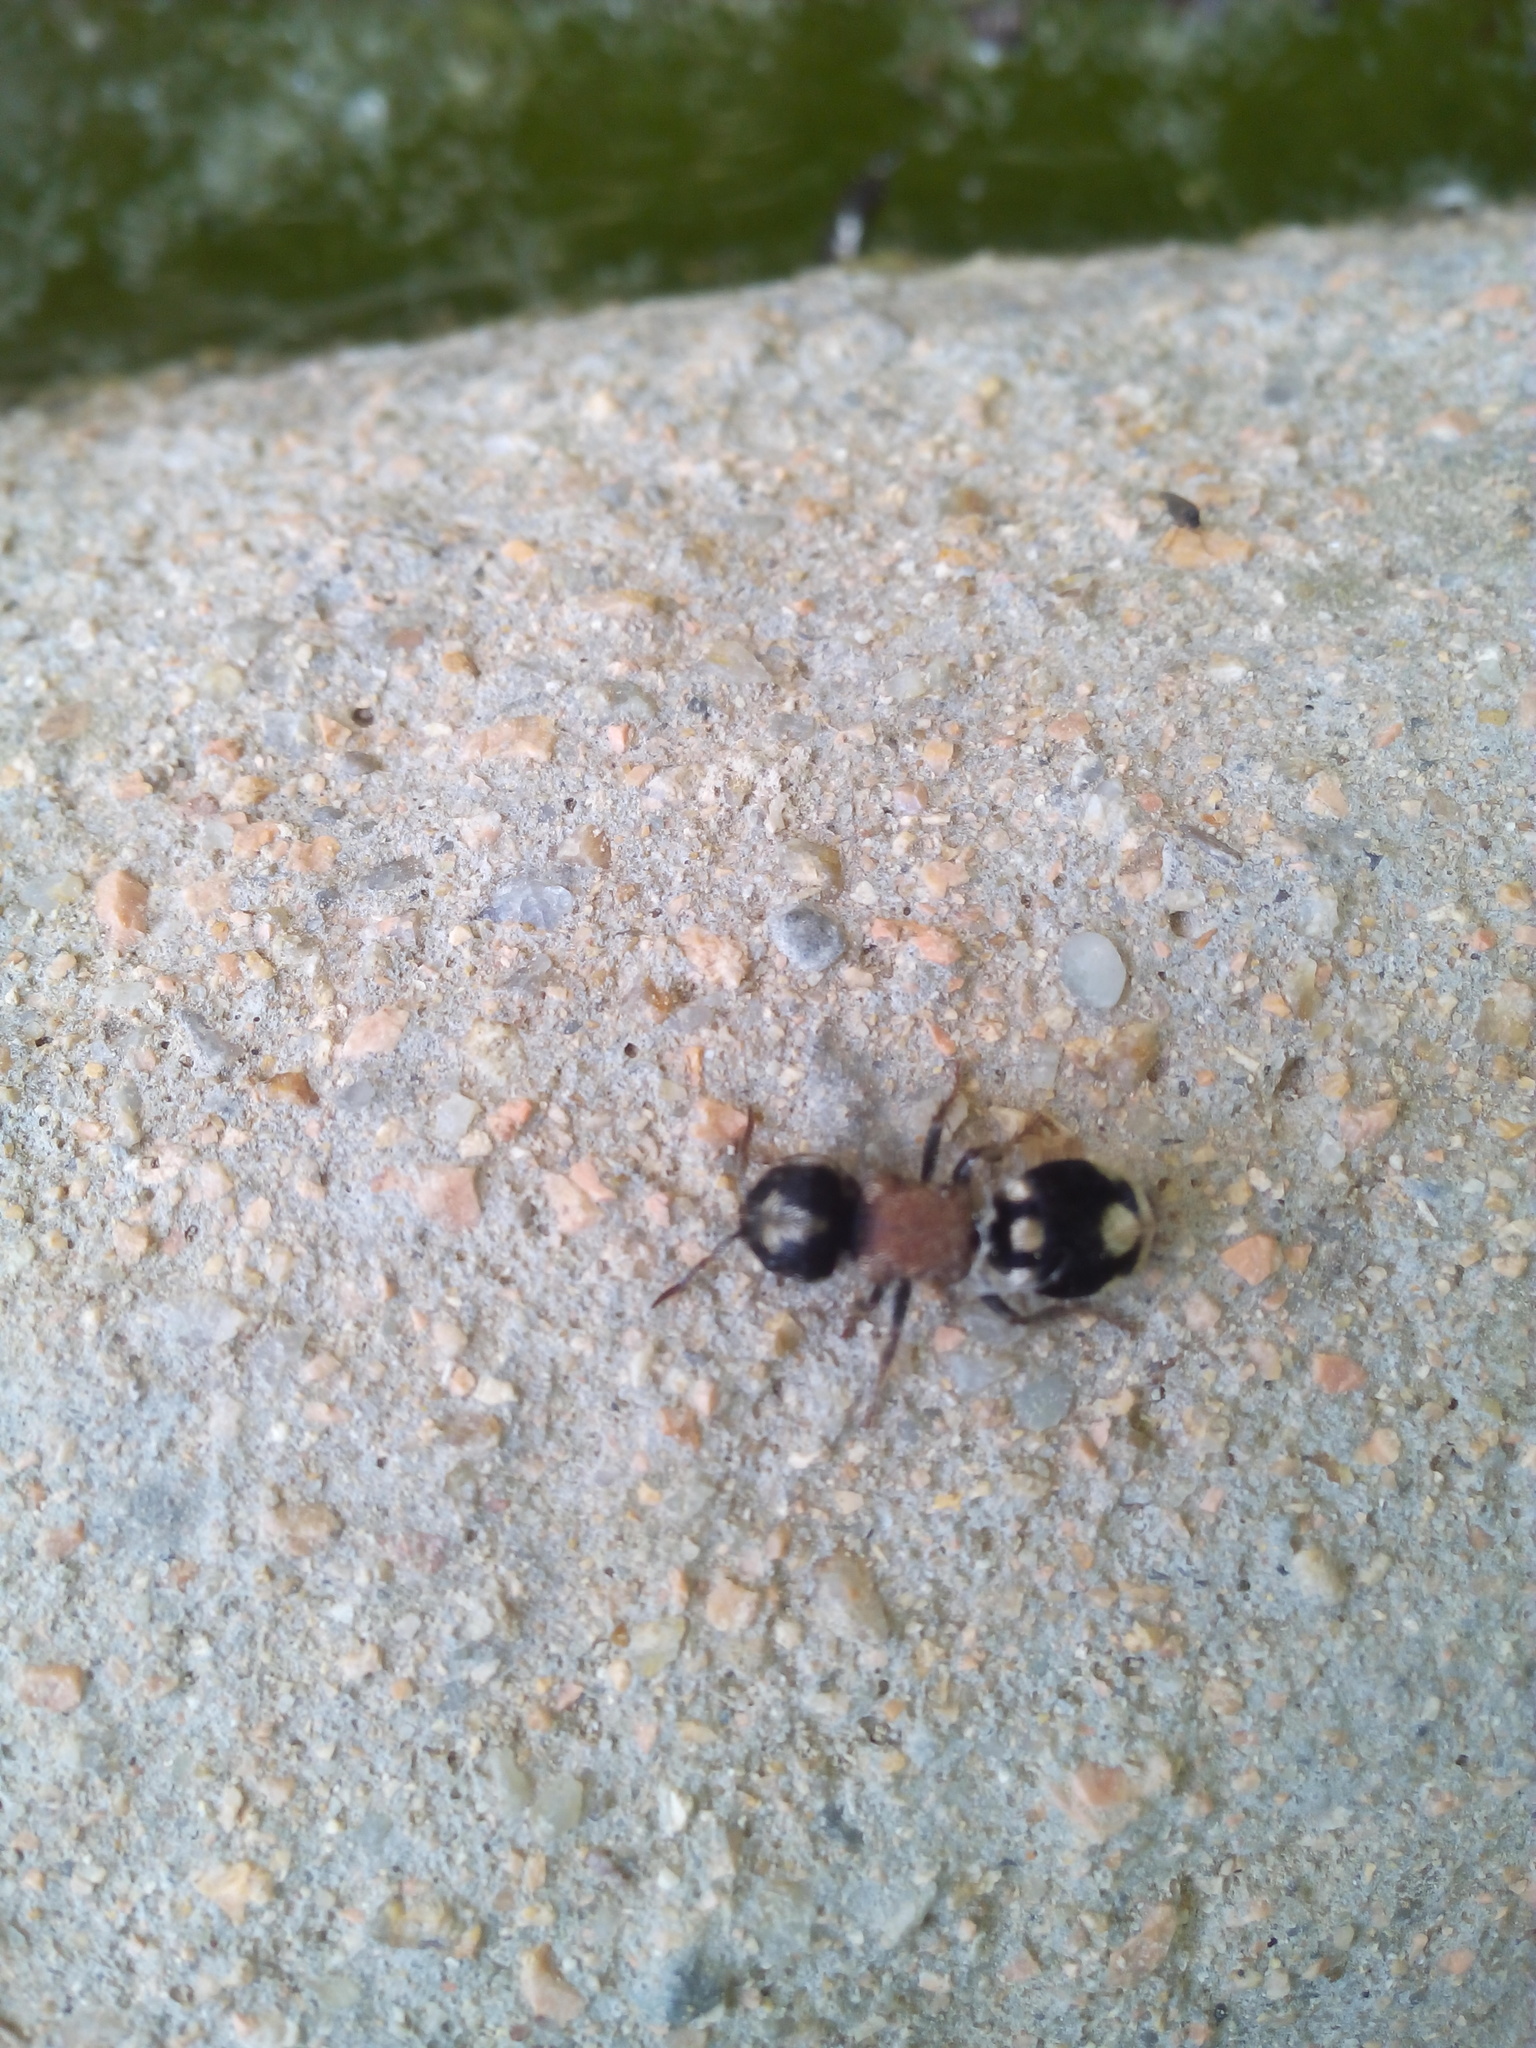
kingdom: Animalia
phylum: Arthropoda
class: Insecta
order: Hymenoptera
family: Mutillidae
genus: Ronisia
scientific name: Ronisia barbarula
